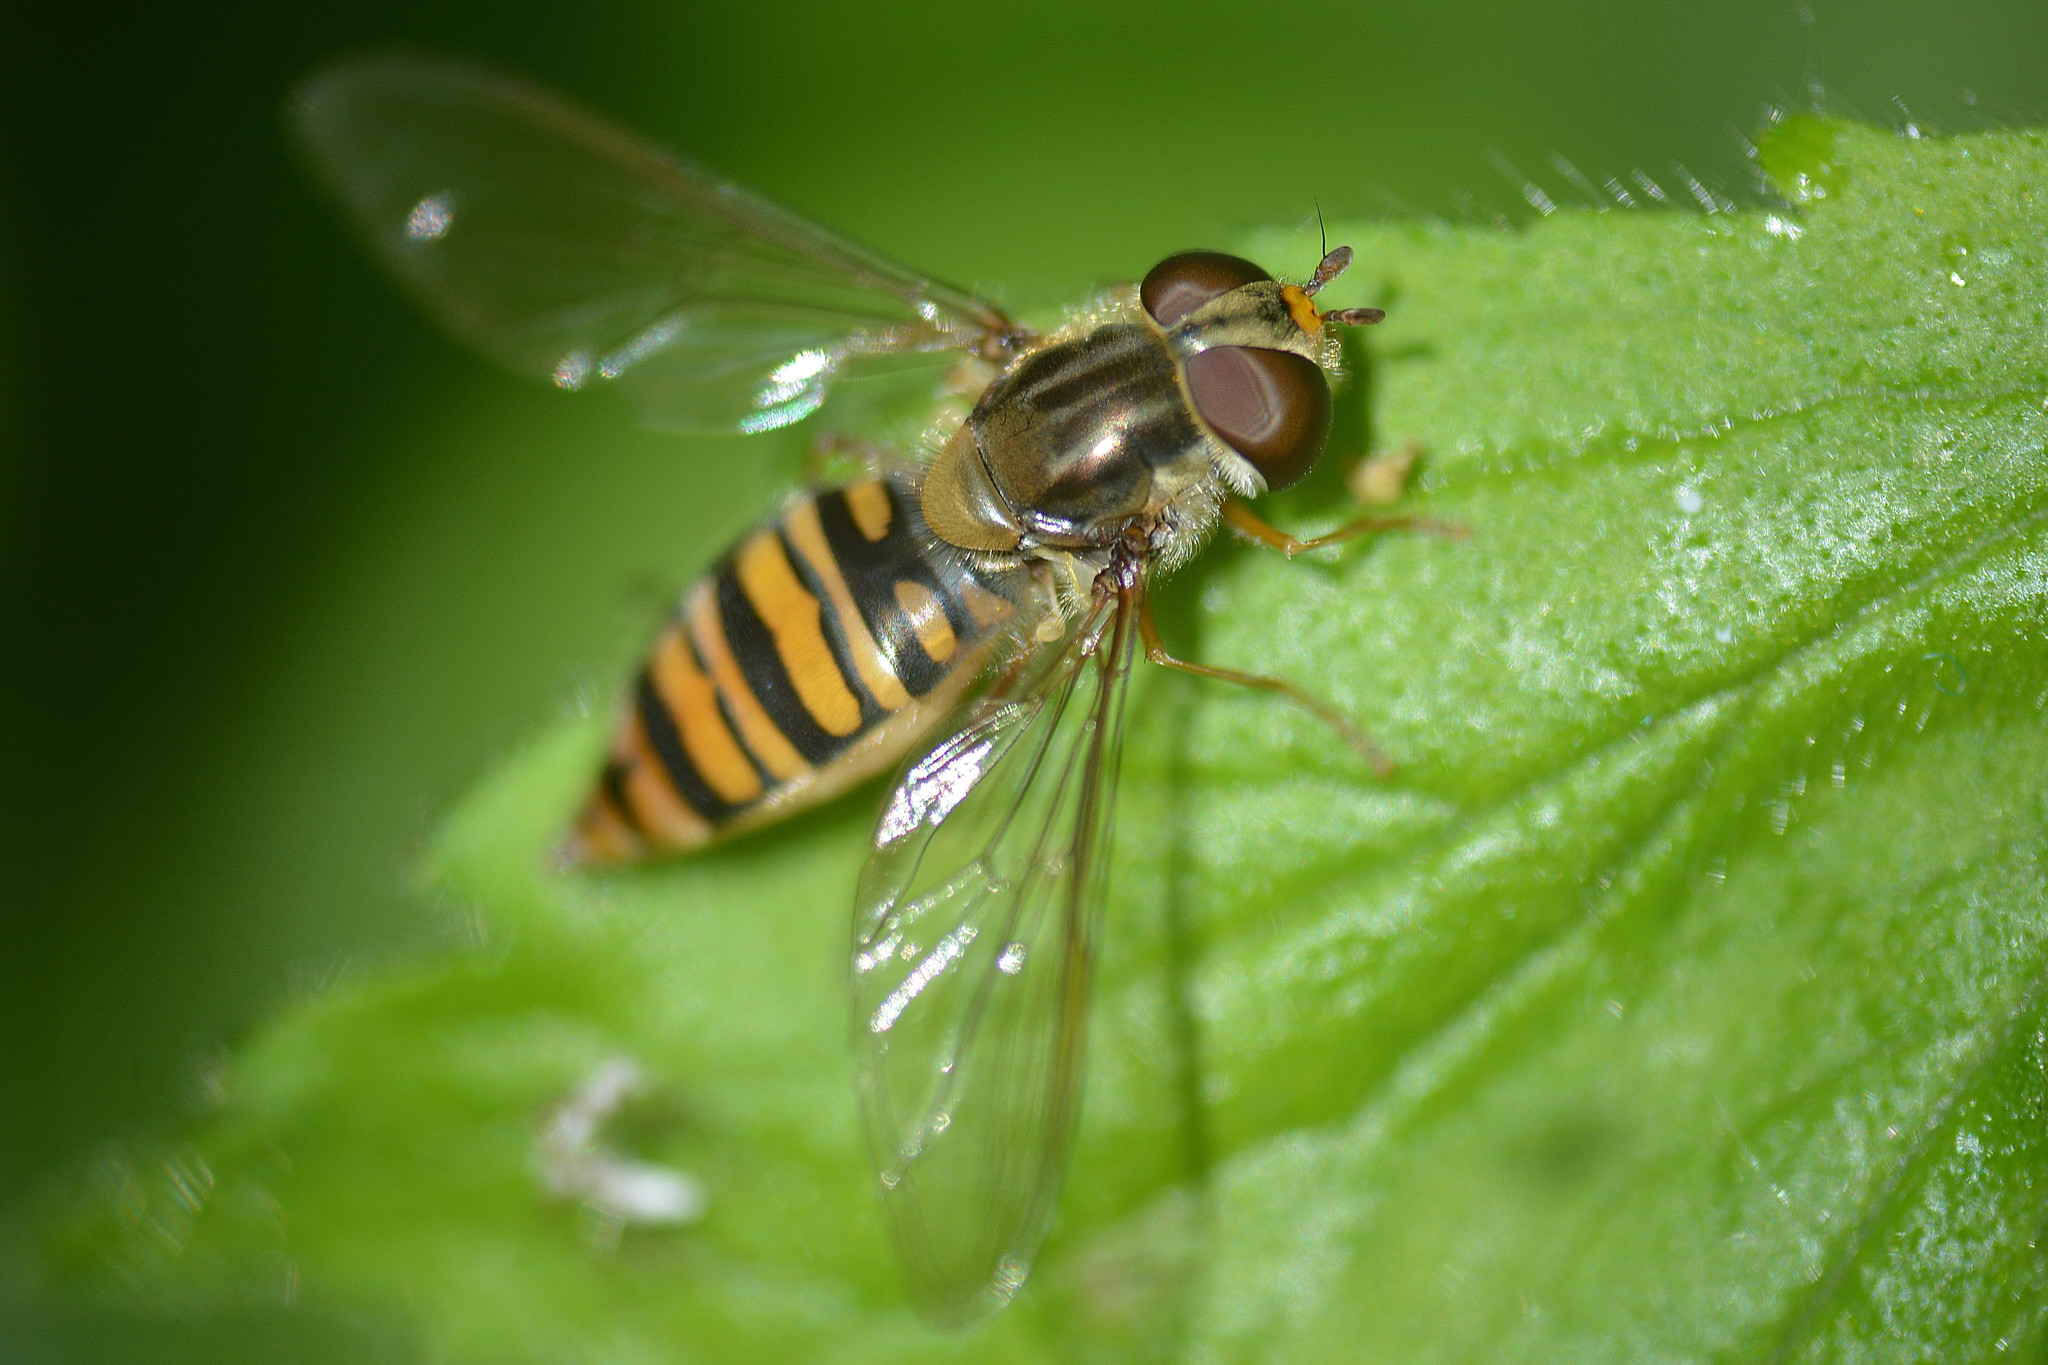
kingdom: Animalia
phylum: Arthropoda
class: Insecta
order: Diptera
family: Syrphidae
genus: Episyrphus
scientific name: Episyrphus balteatus
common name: Marmalade hoverfly
